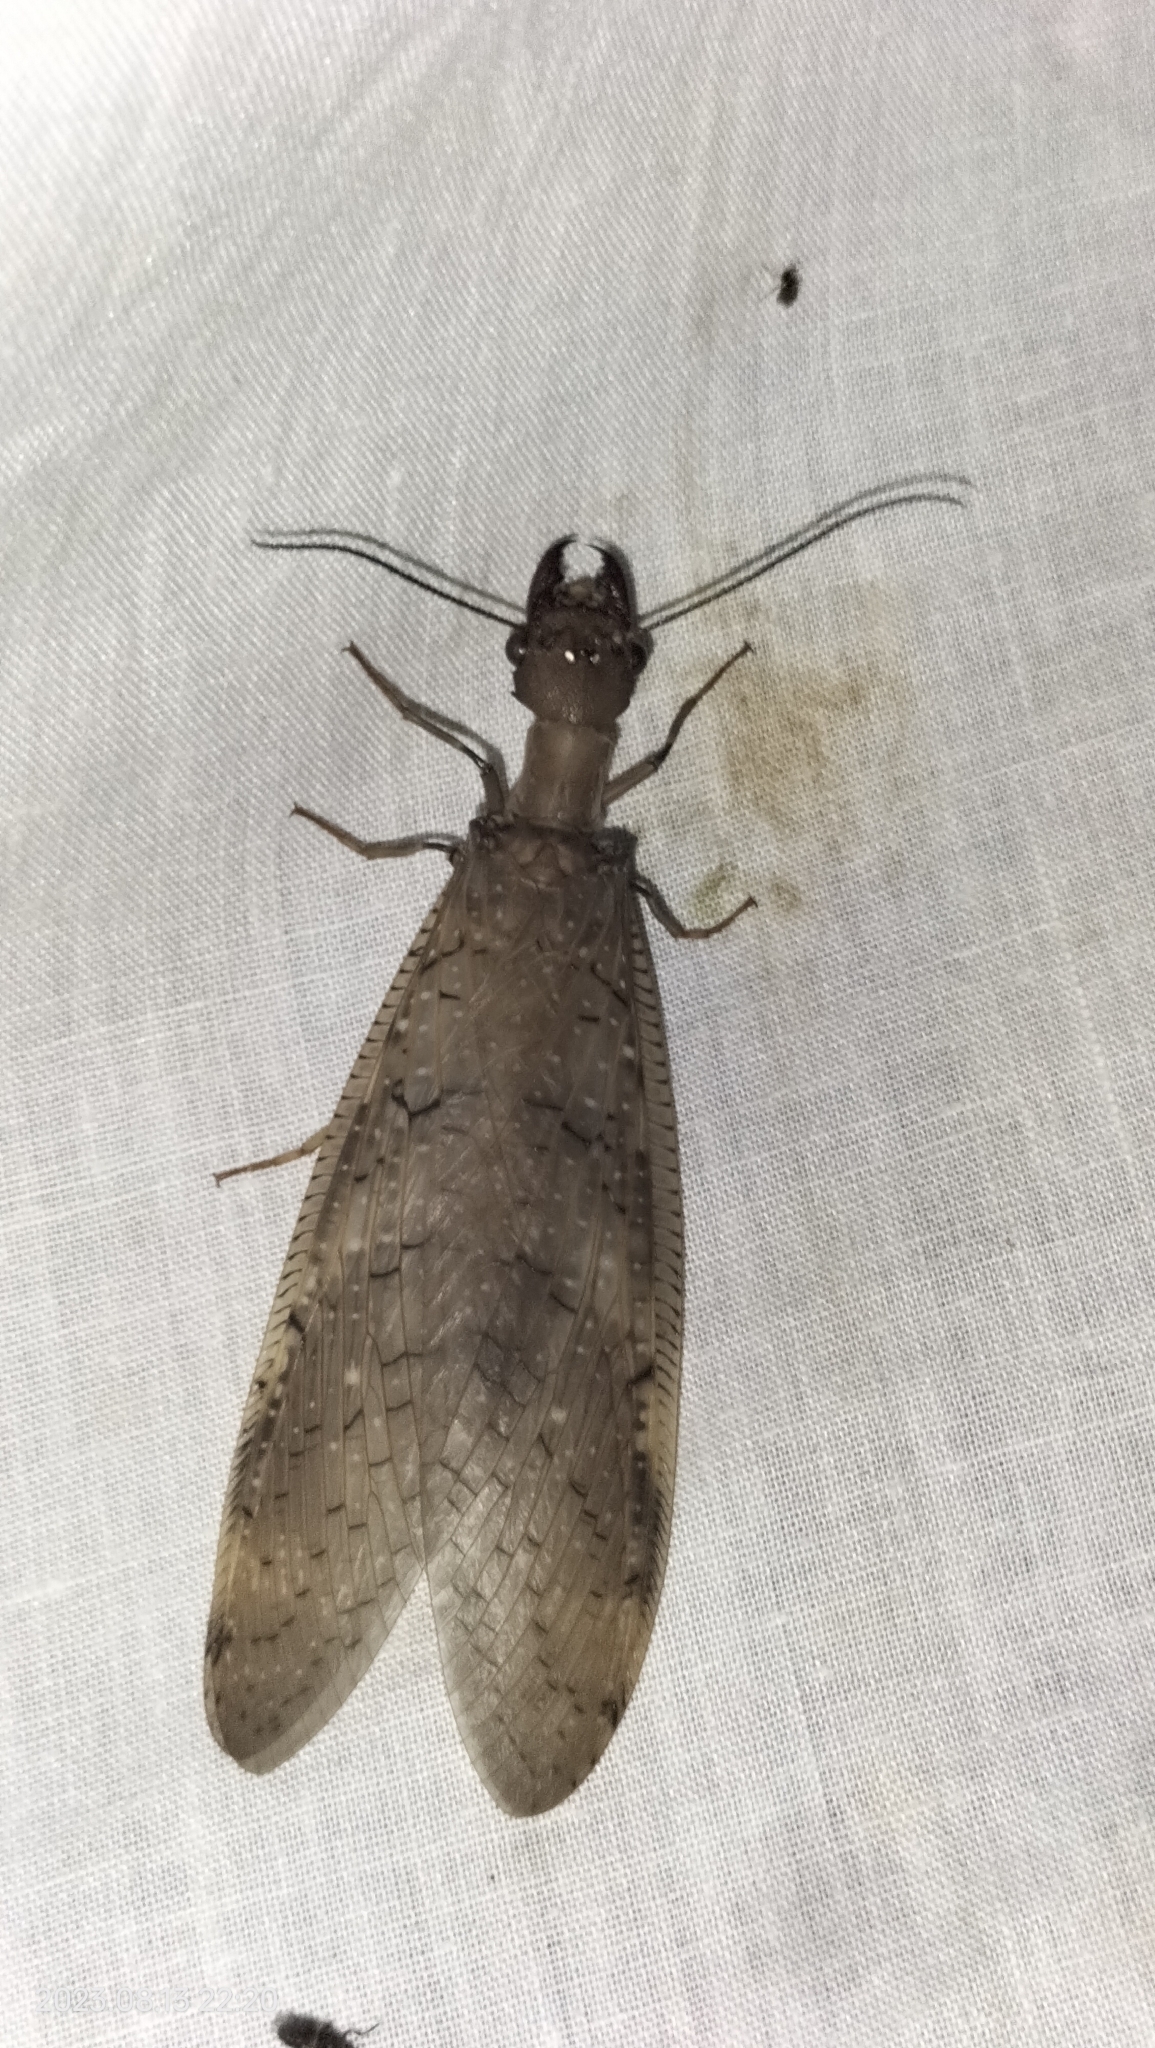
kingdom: Animalia
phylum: Arthropoda
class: Insecta
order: Megaloptera
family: Corydalidae
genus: Corydalus
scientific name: Corydalus peruvianus
